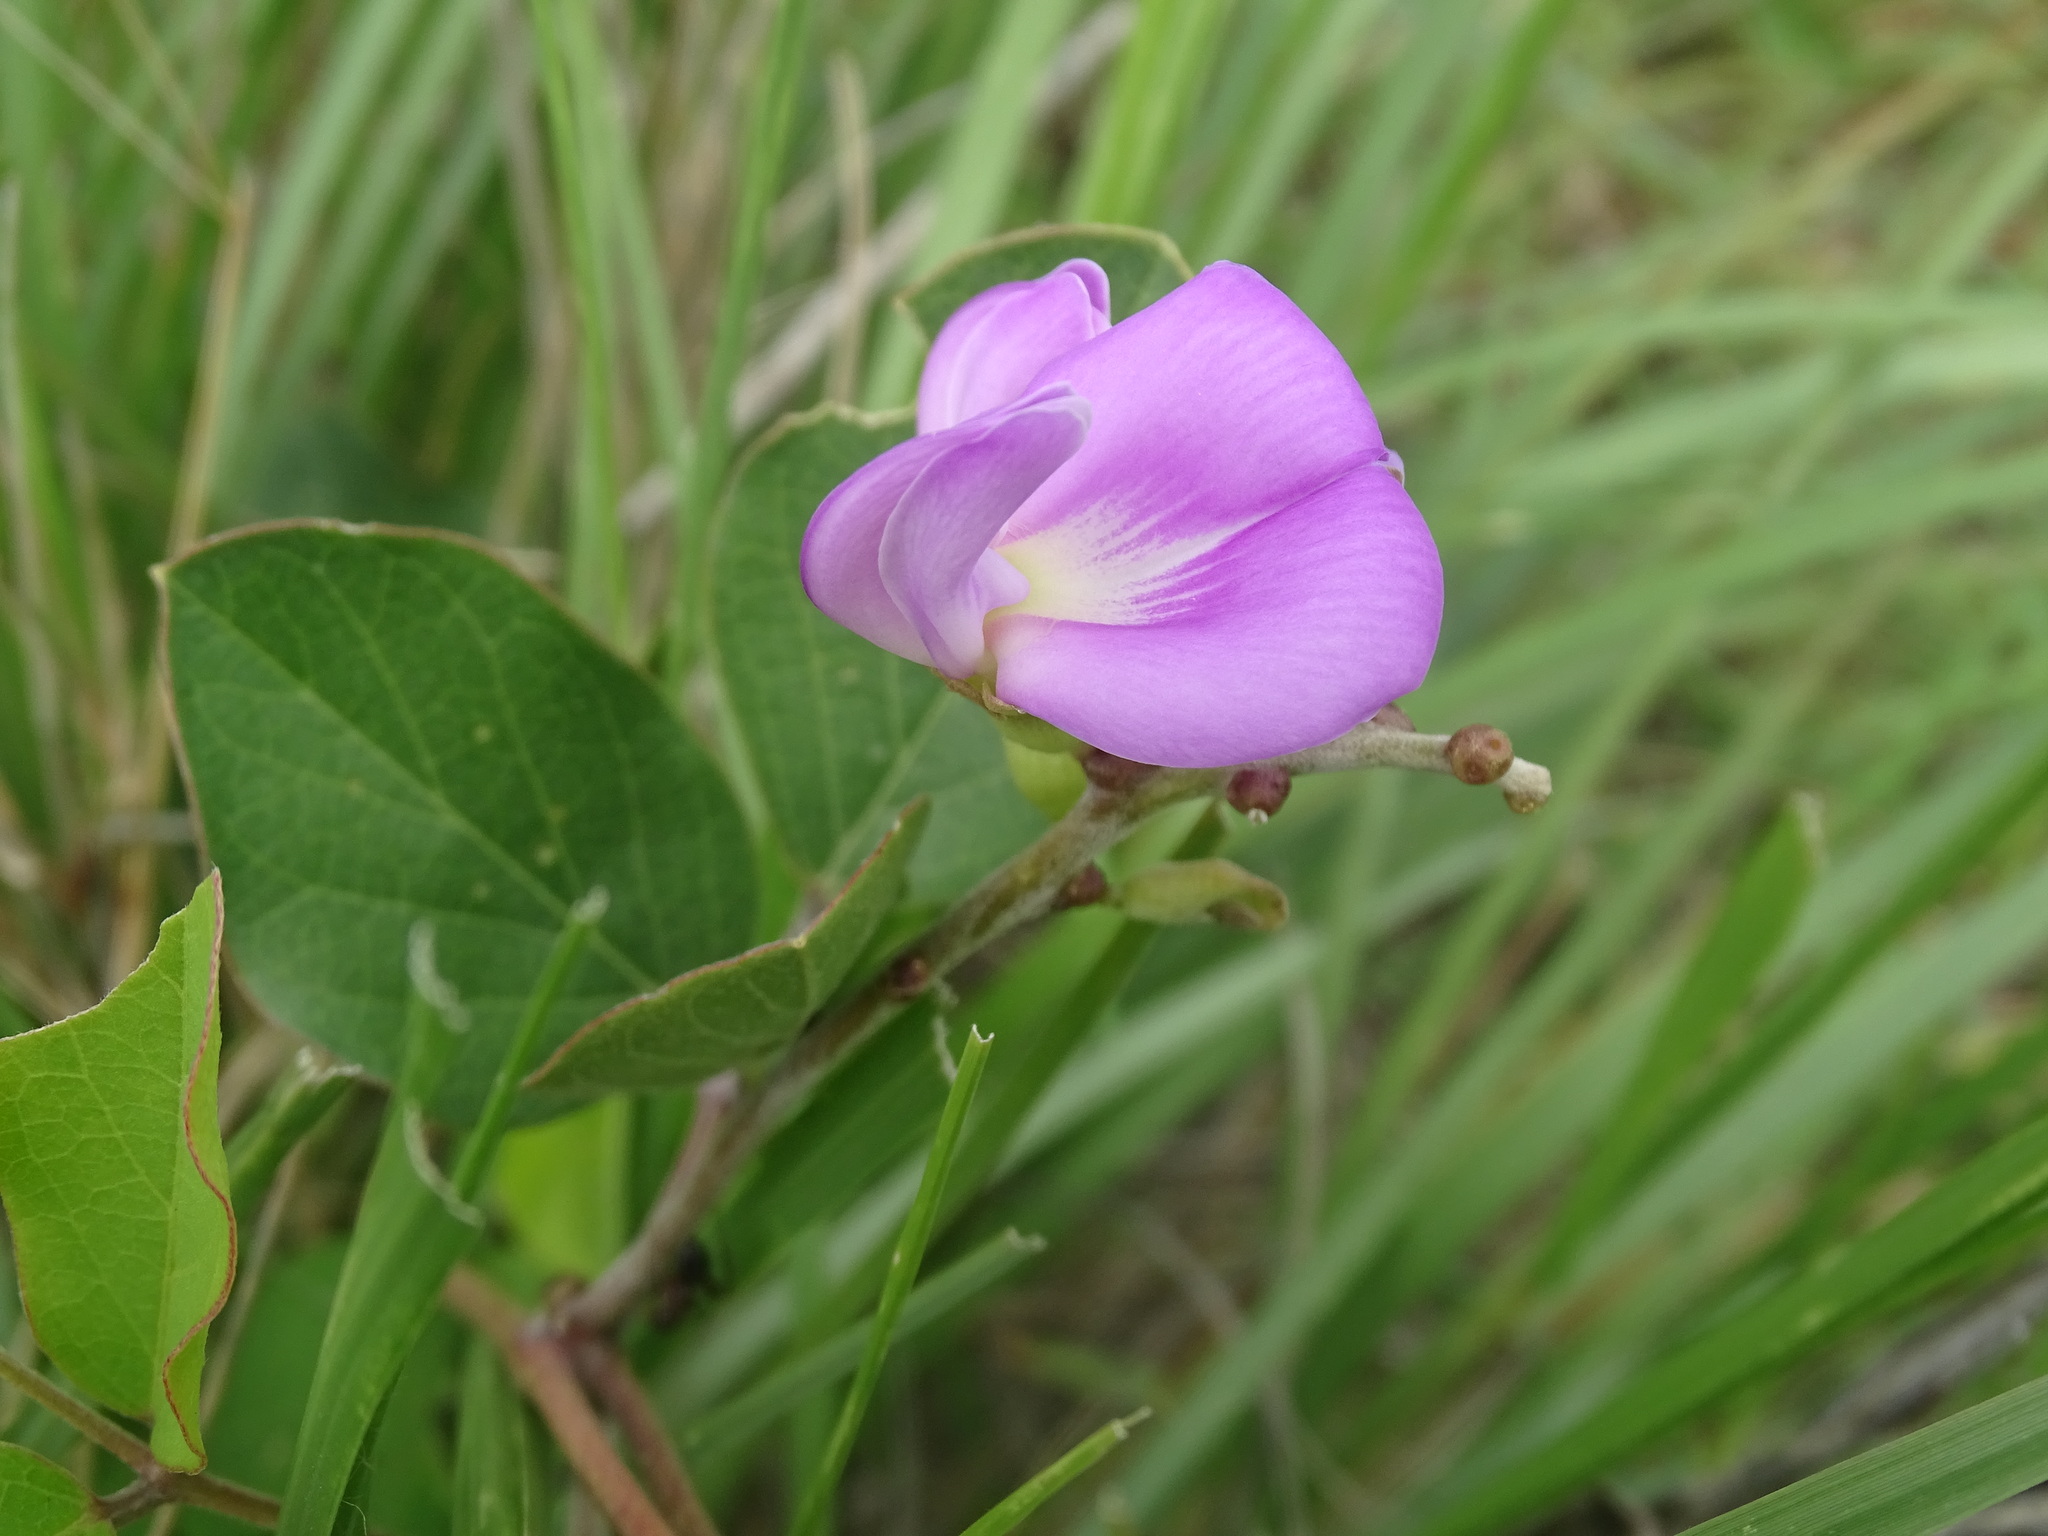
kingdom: Plantae
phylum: Tracheophyta
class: Magnoliopsida
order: Fabales
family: Fabaceae
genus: Canavalia
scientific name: Canavalia brasiliensis
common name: Barbicou-bean
